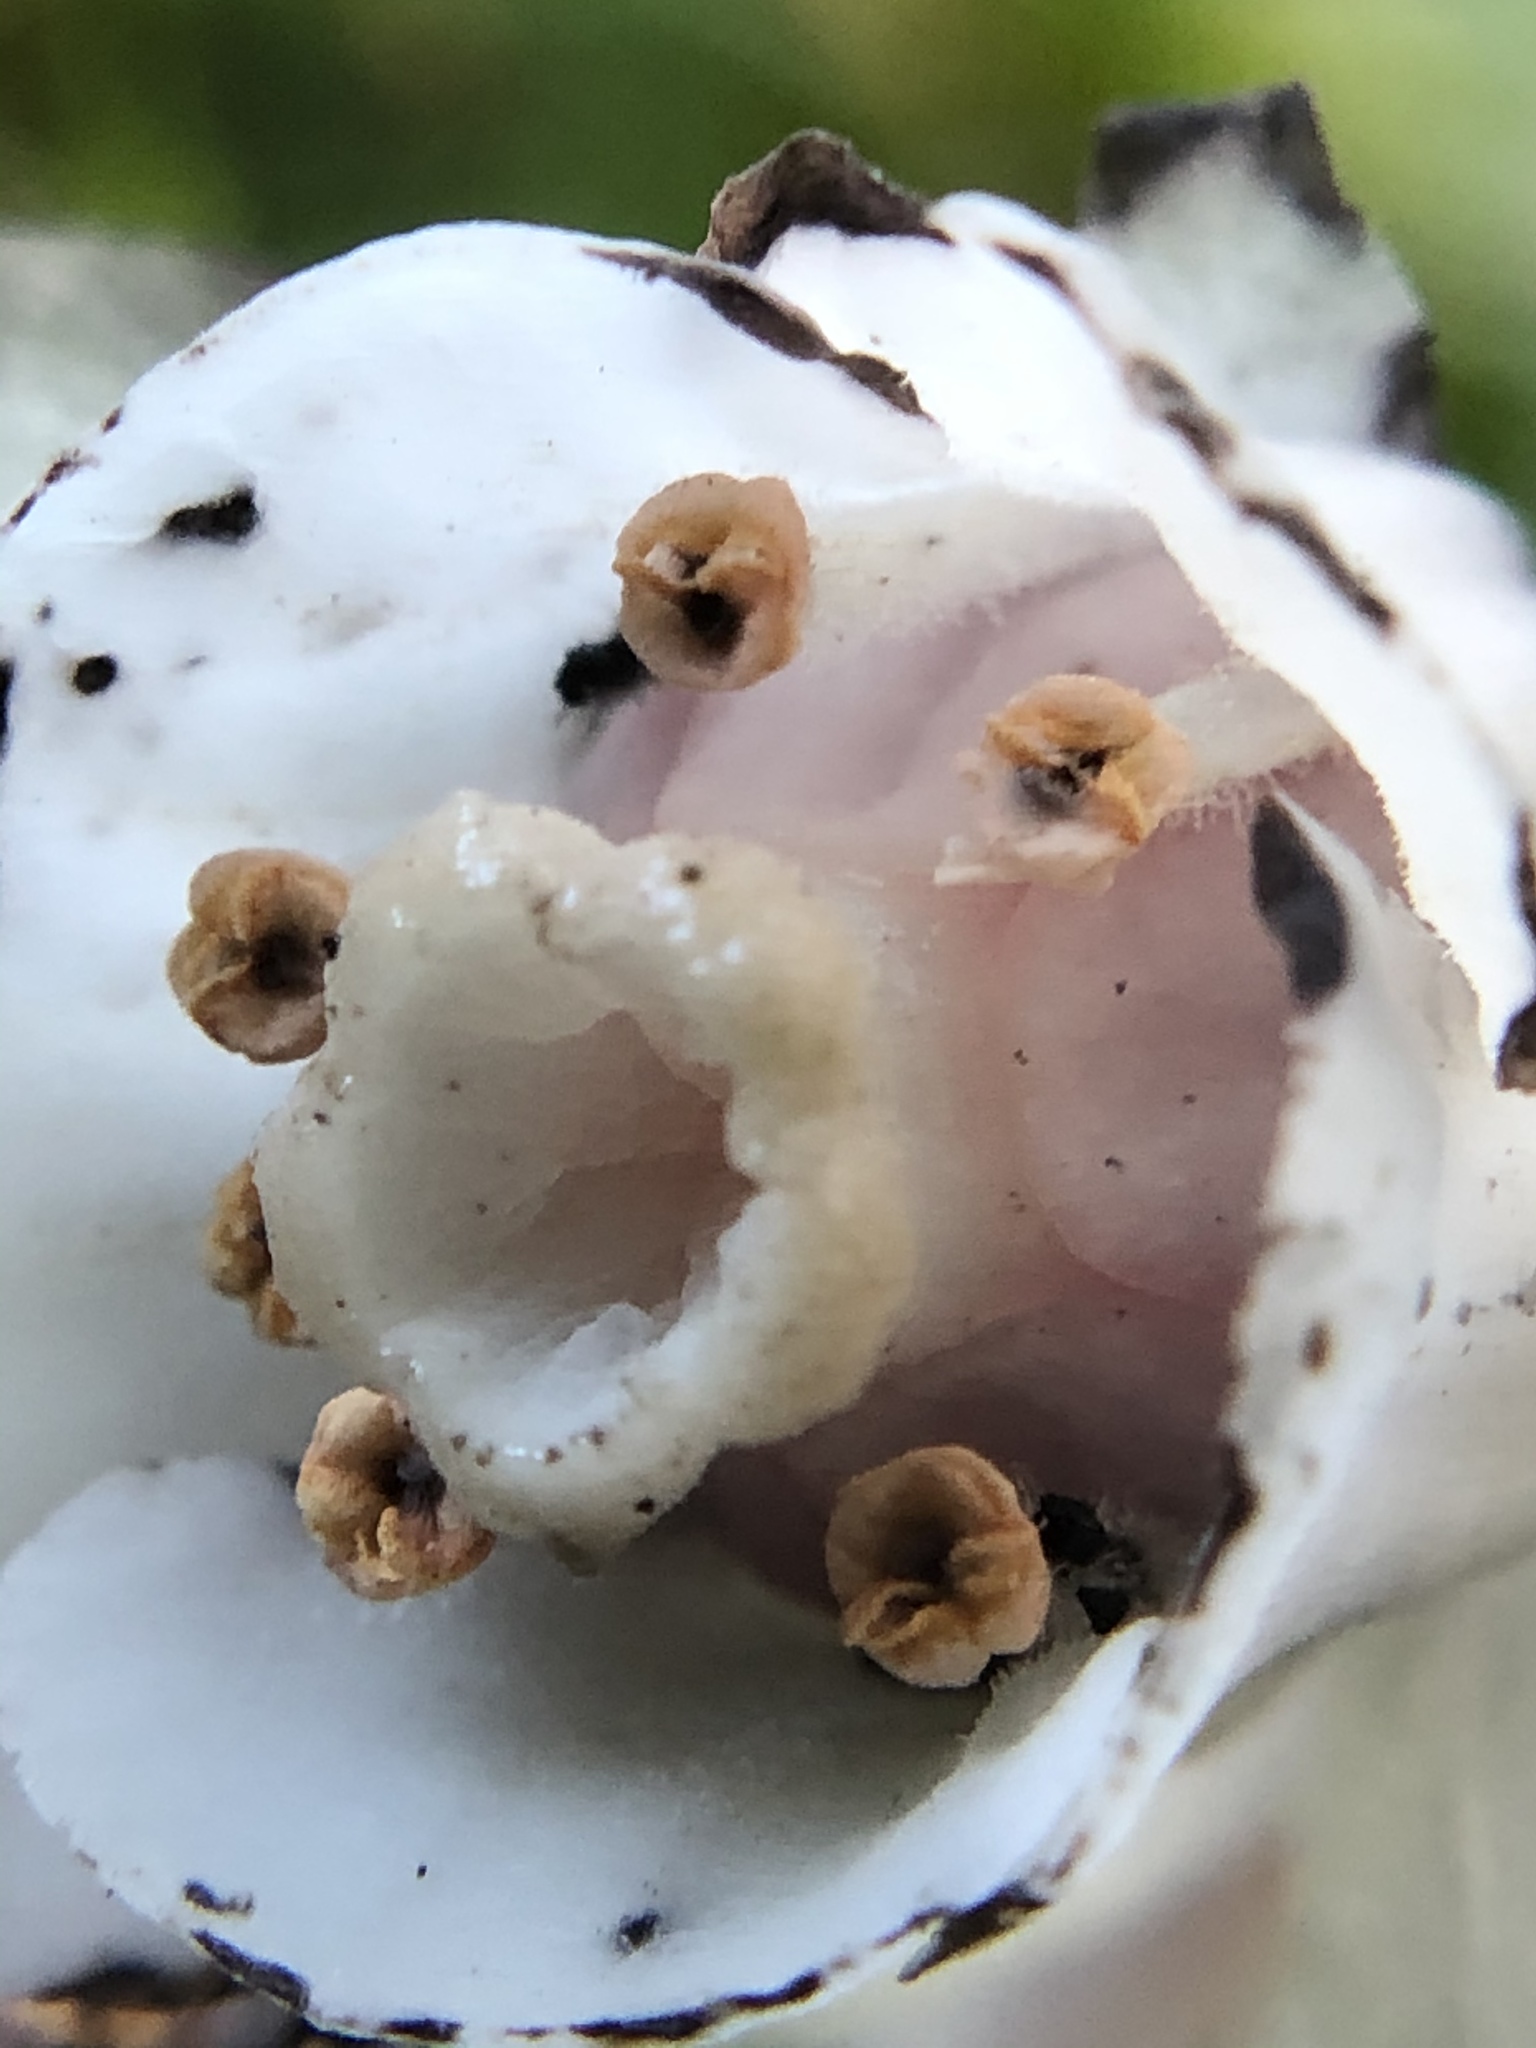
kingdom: Plantae
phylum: Tracheophyta
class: Magnoliopsida
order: Ericales
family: Ericaceae
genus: Monotropa
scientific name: Monotropa uniflora
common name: Convulsion root
